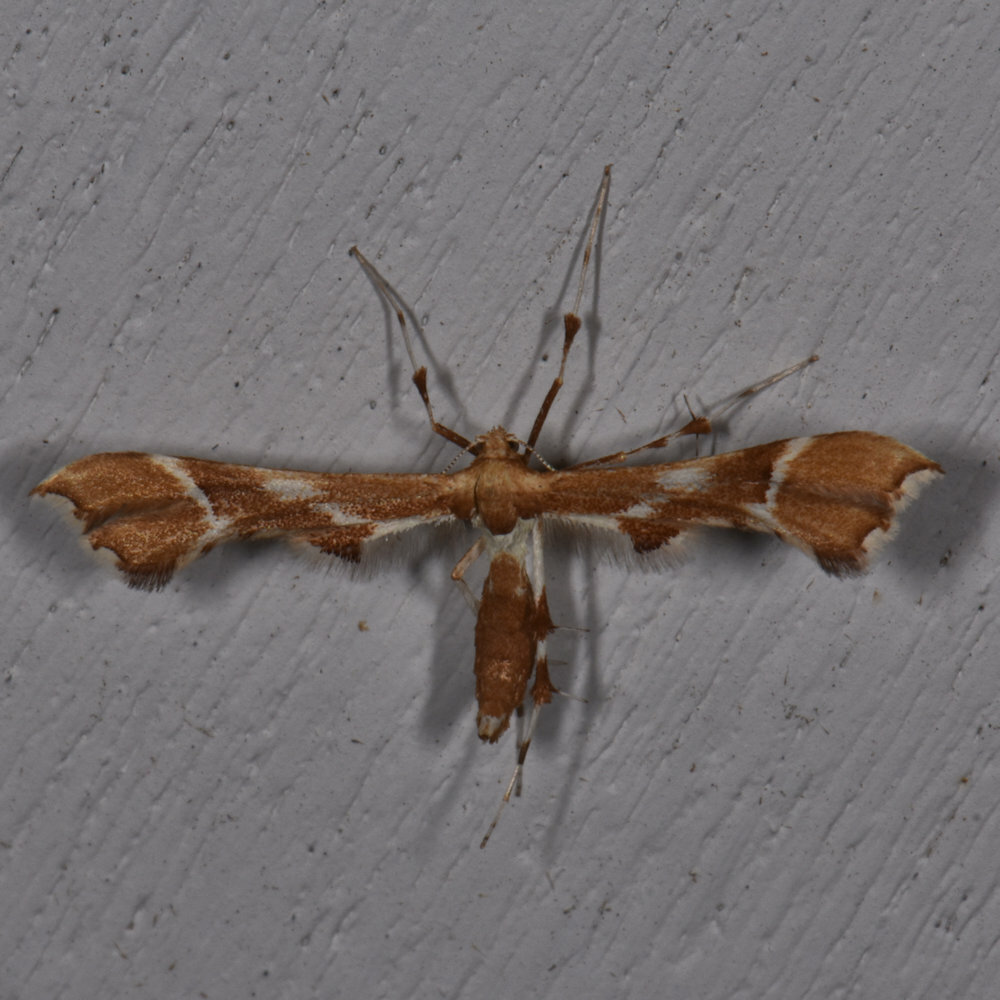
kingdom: Animalia
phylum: Arthropoda
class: Insecta
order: Lepidoptera
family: Pterophoridae
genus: Cnaemidophorus
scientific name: Cnaemidophorus rhododactyla
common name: Rose plume
